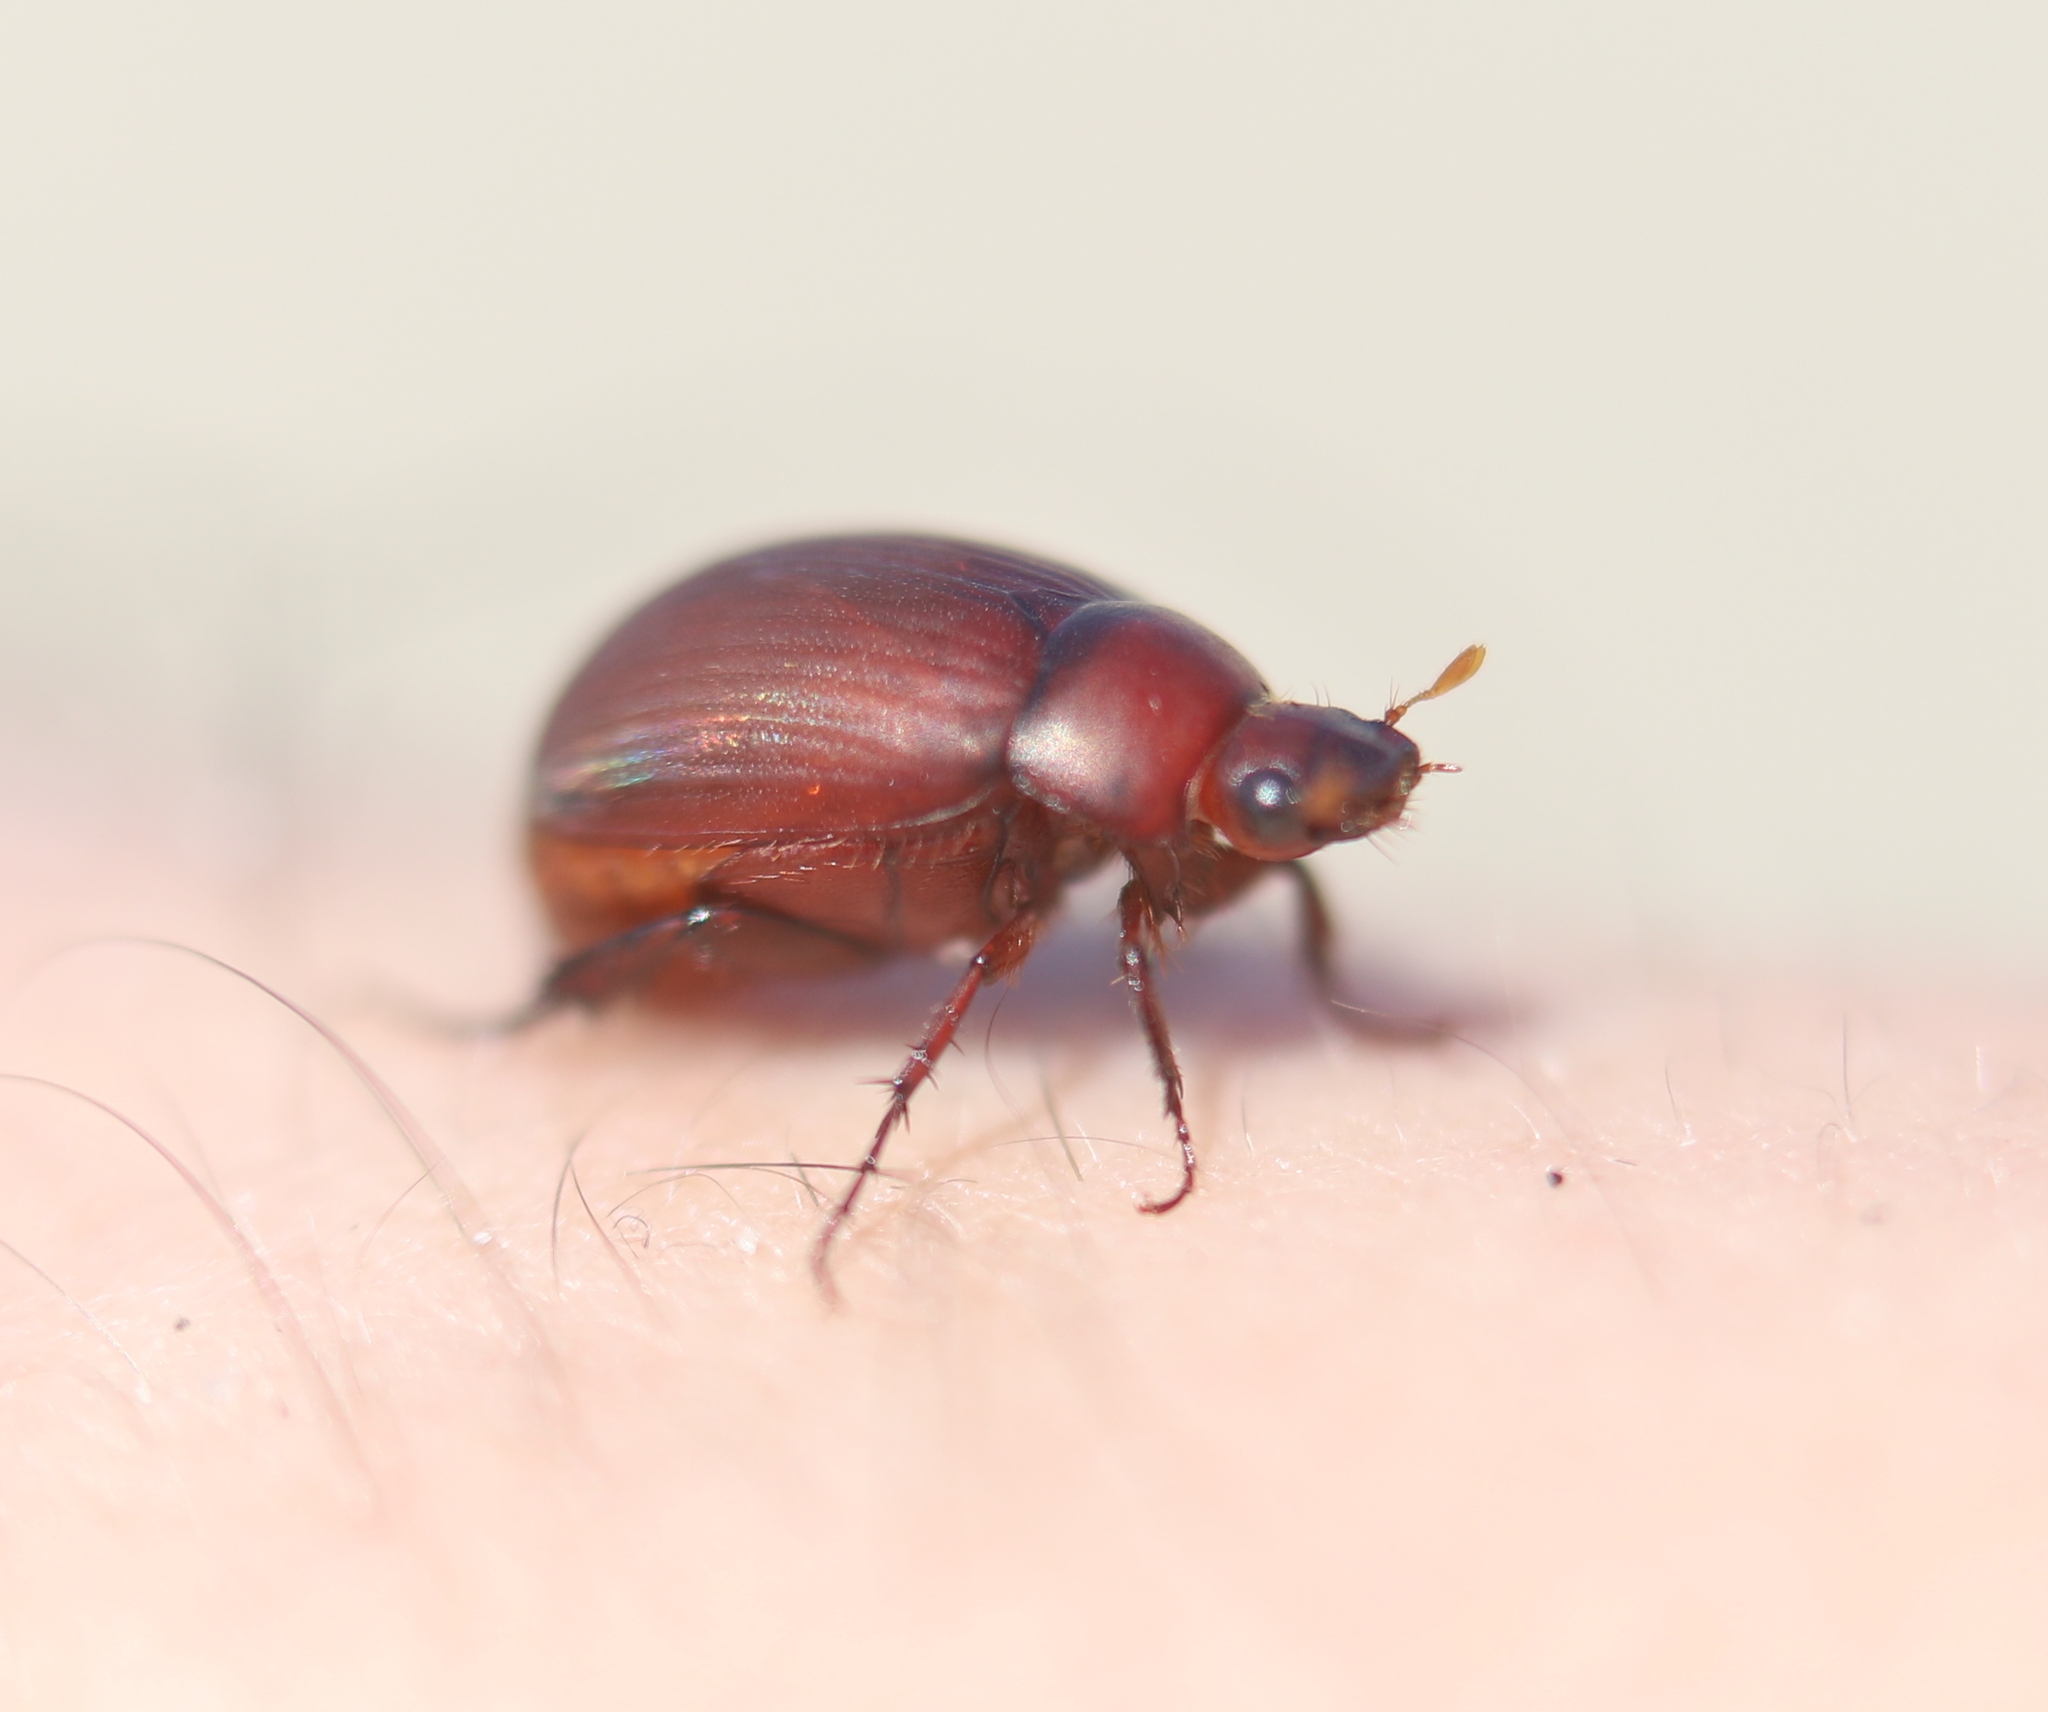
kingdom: Animalia
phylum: Arthropoda
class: Insecta
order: Coleoptera
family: Scarabaeidae
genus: Maladera
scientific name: Maladera formosae
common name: Asiatic garden beetle
